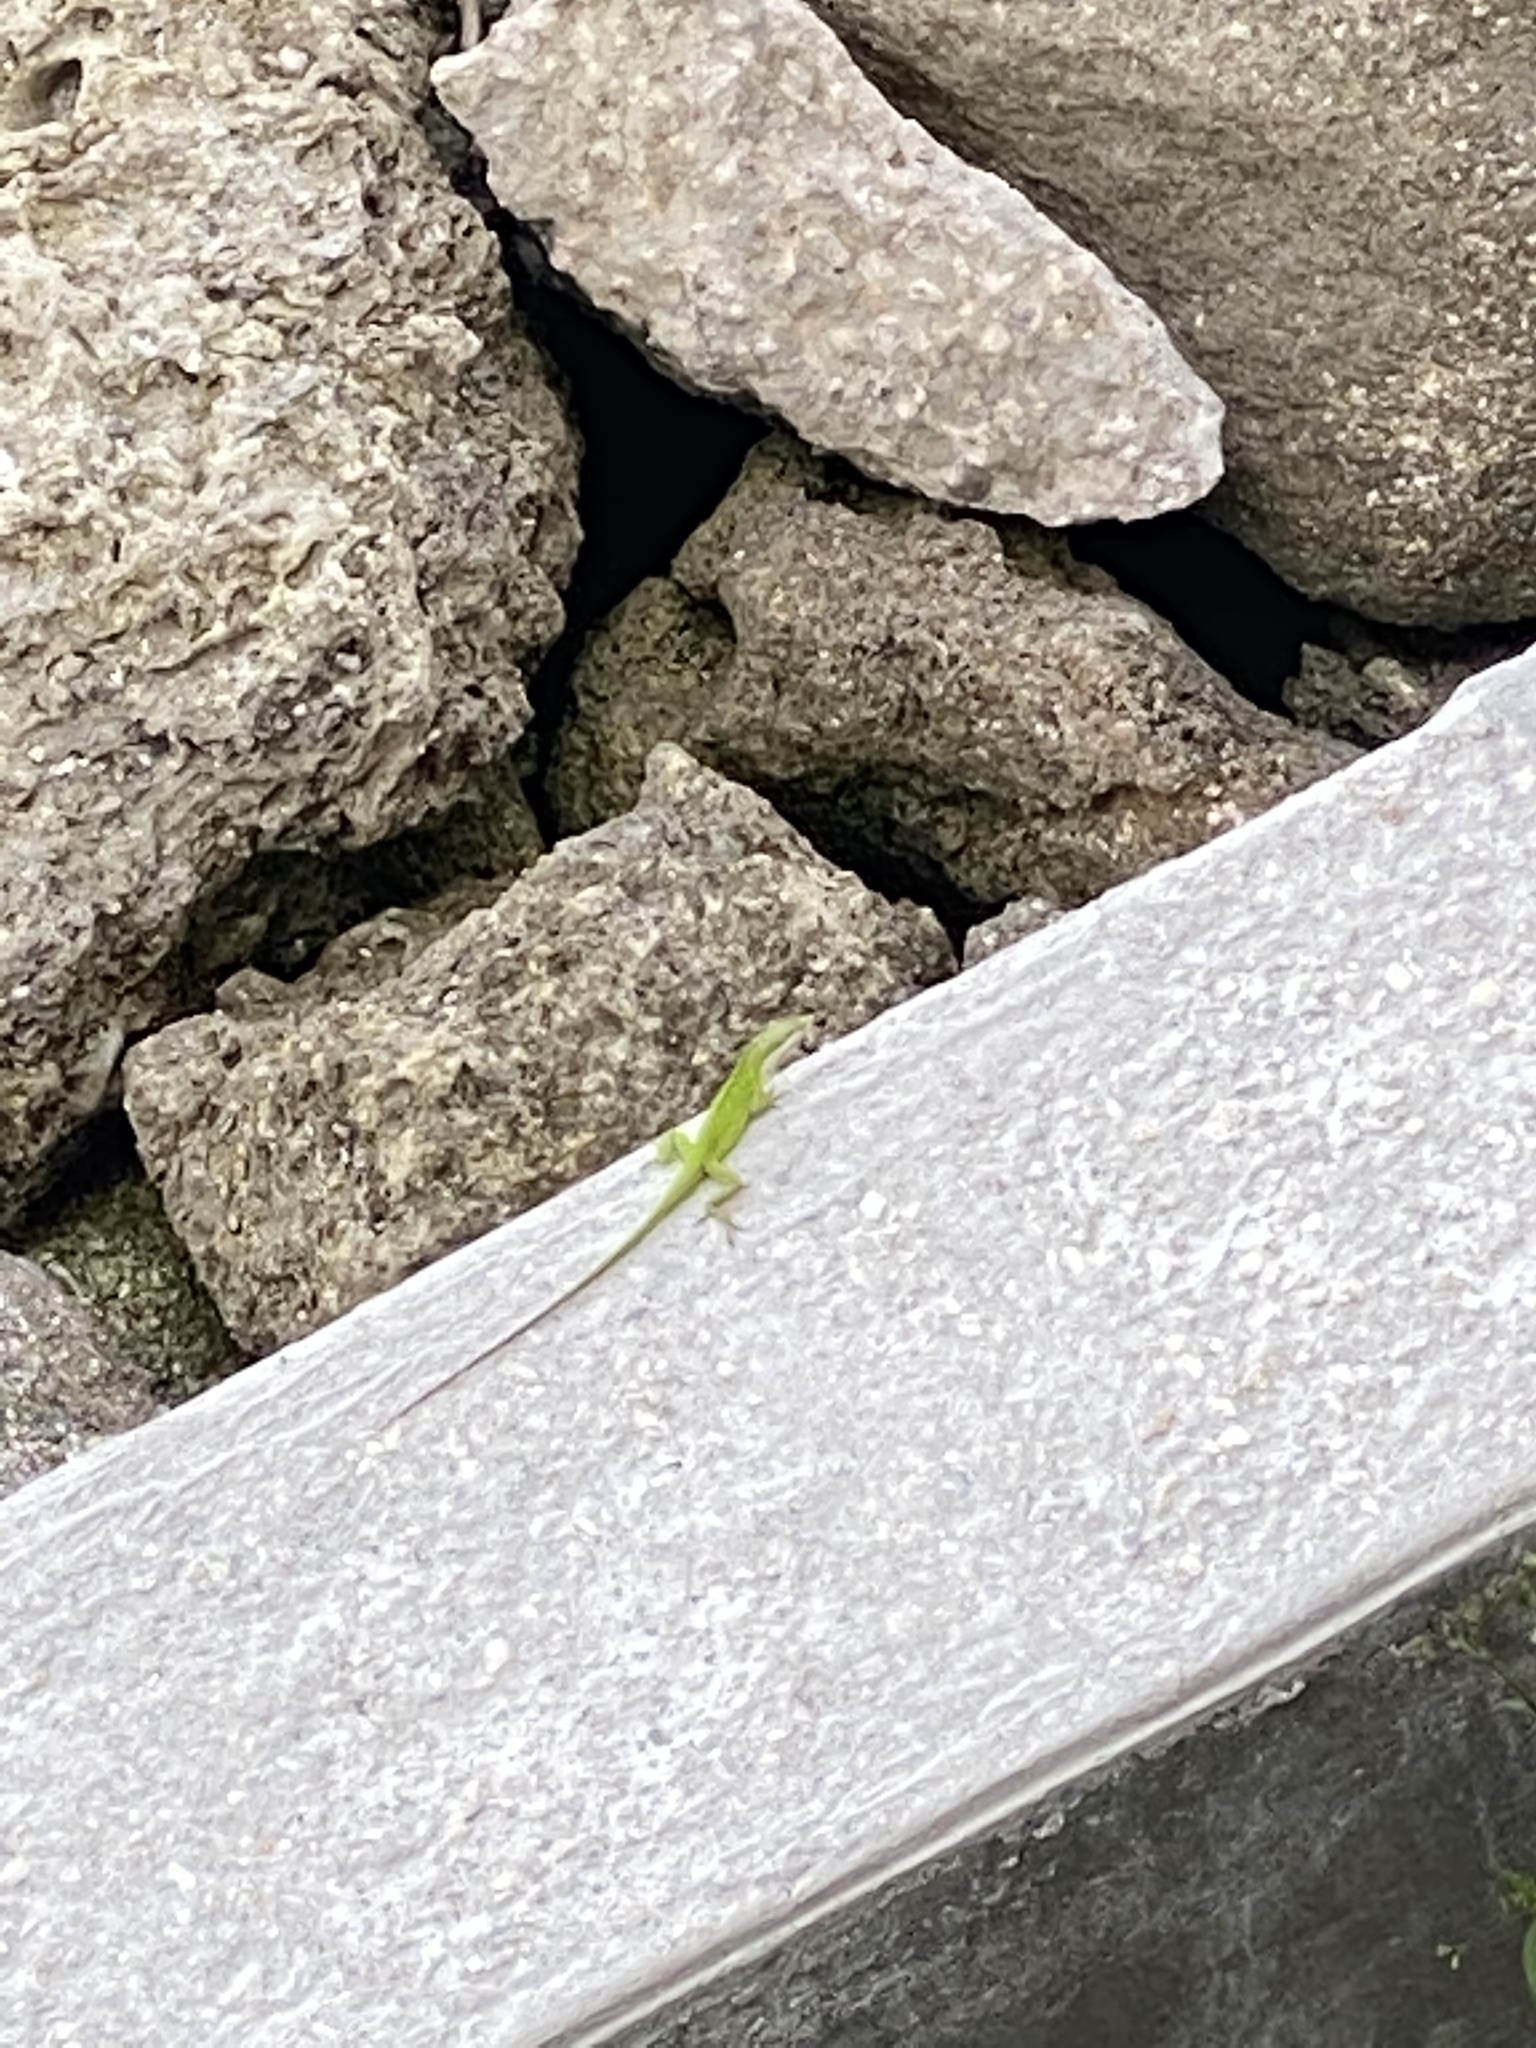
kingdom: Animalia
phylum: Chordata
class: Squamata
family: Dactyloidae
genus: Anolis
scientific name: Anolis carolinensis
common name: Green anole
